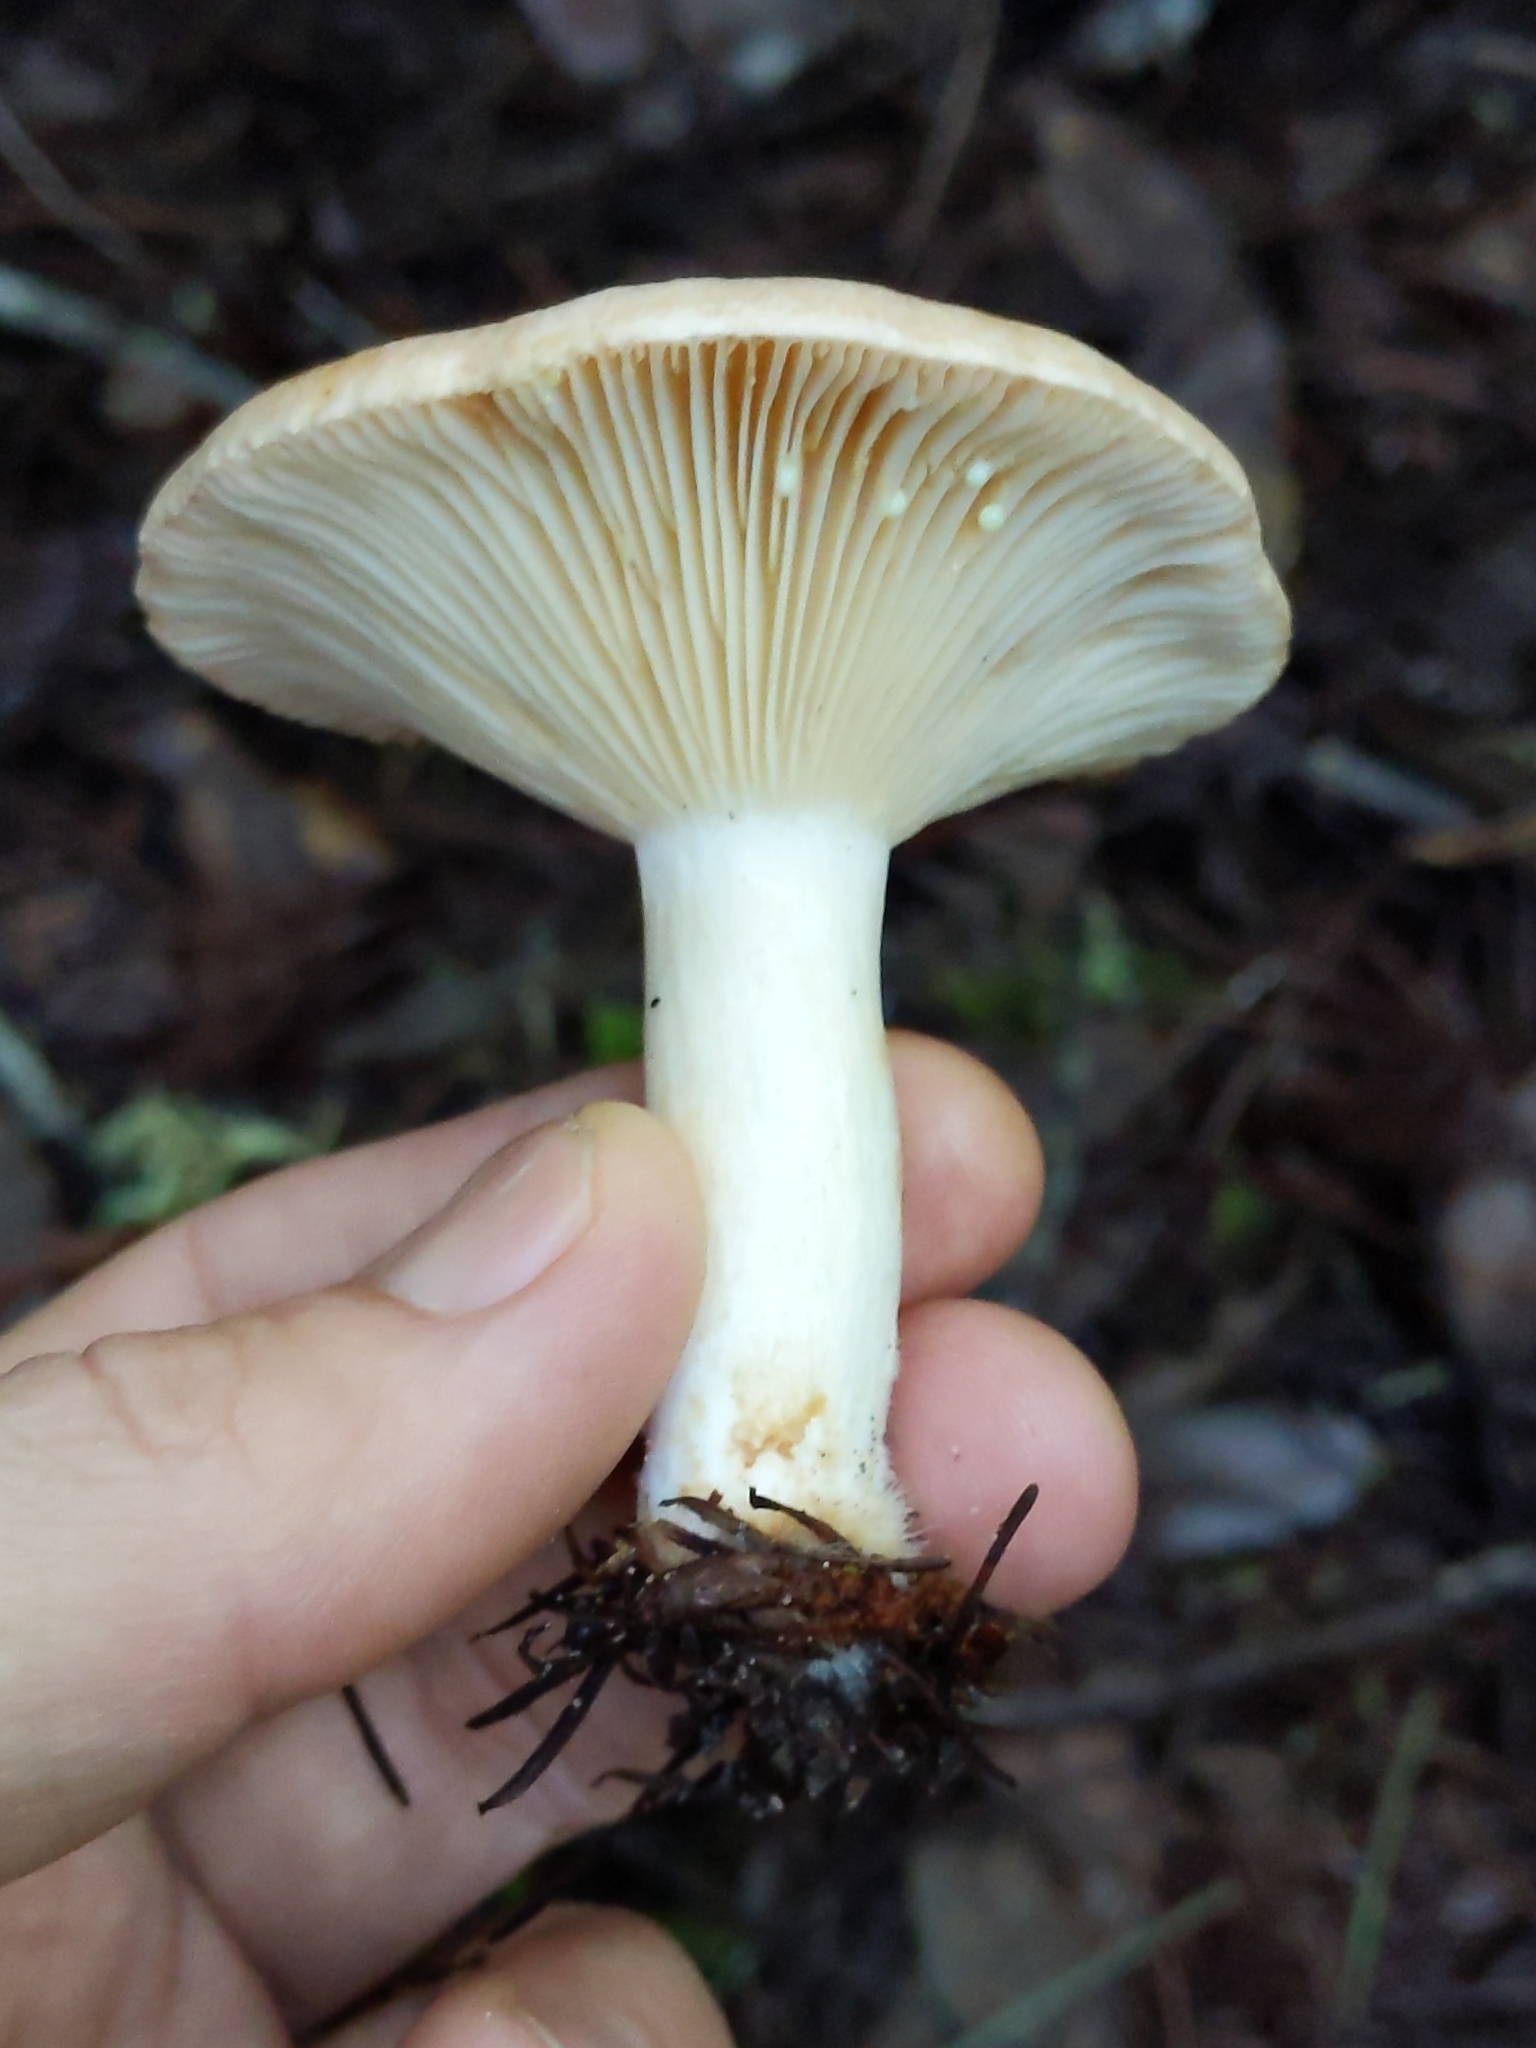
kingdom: Fungi
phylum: Basidiomycota
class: Agaricomycetes
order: Russulales
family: Russulaceae
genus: Lactarius
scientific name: Lactarius xanthogalactus
